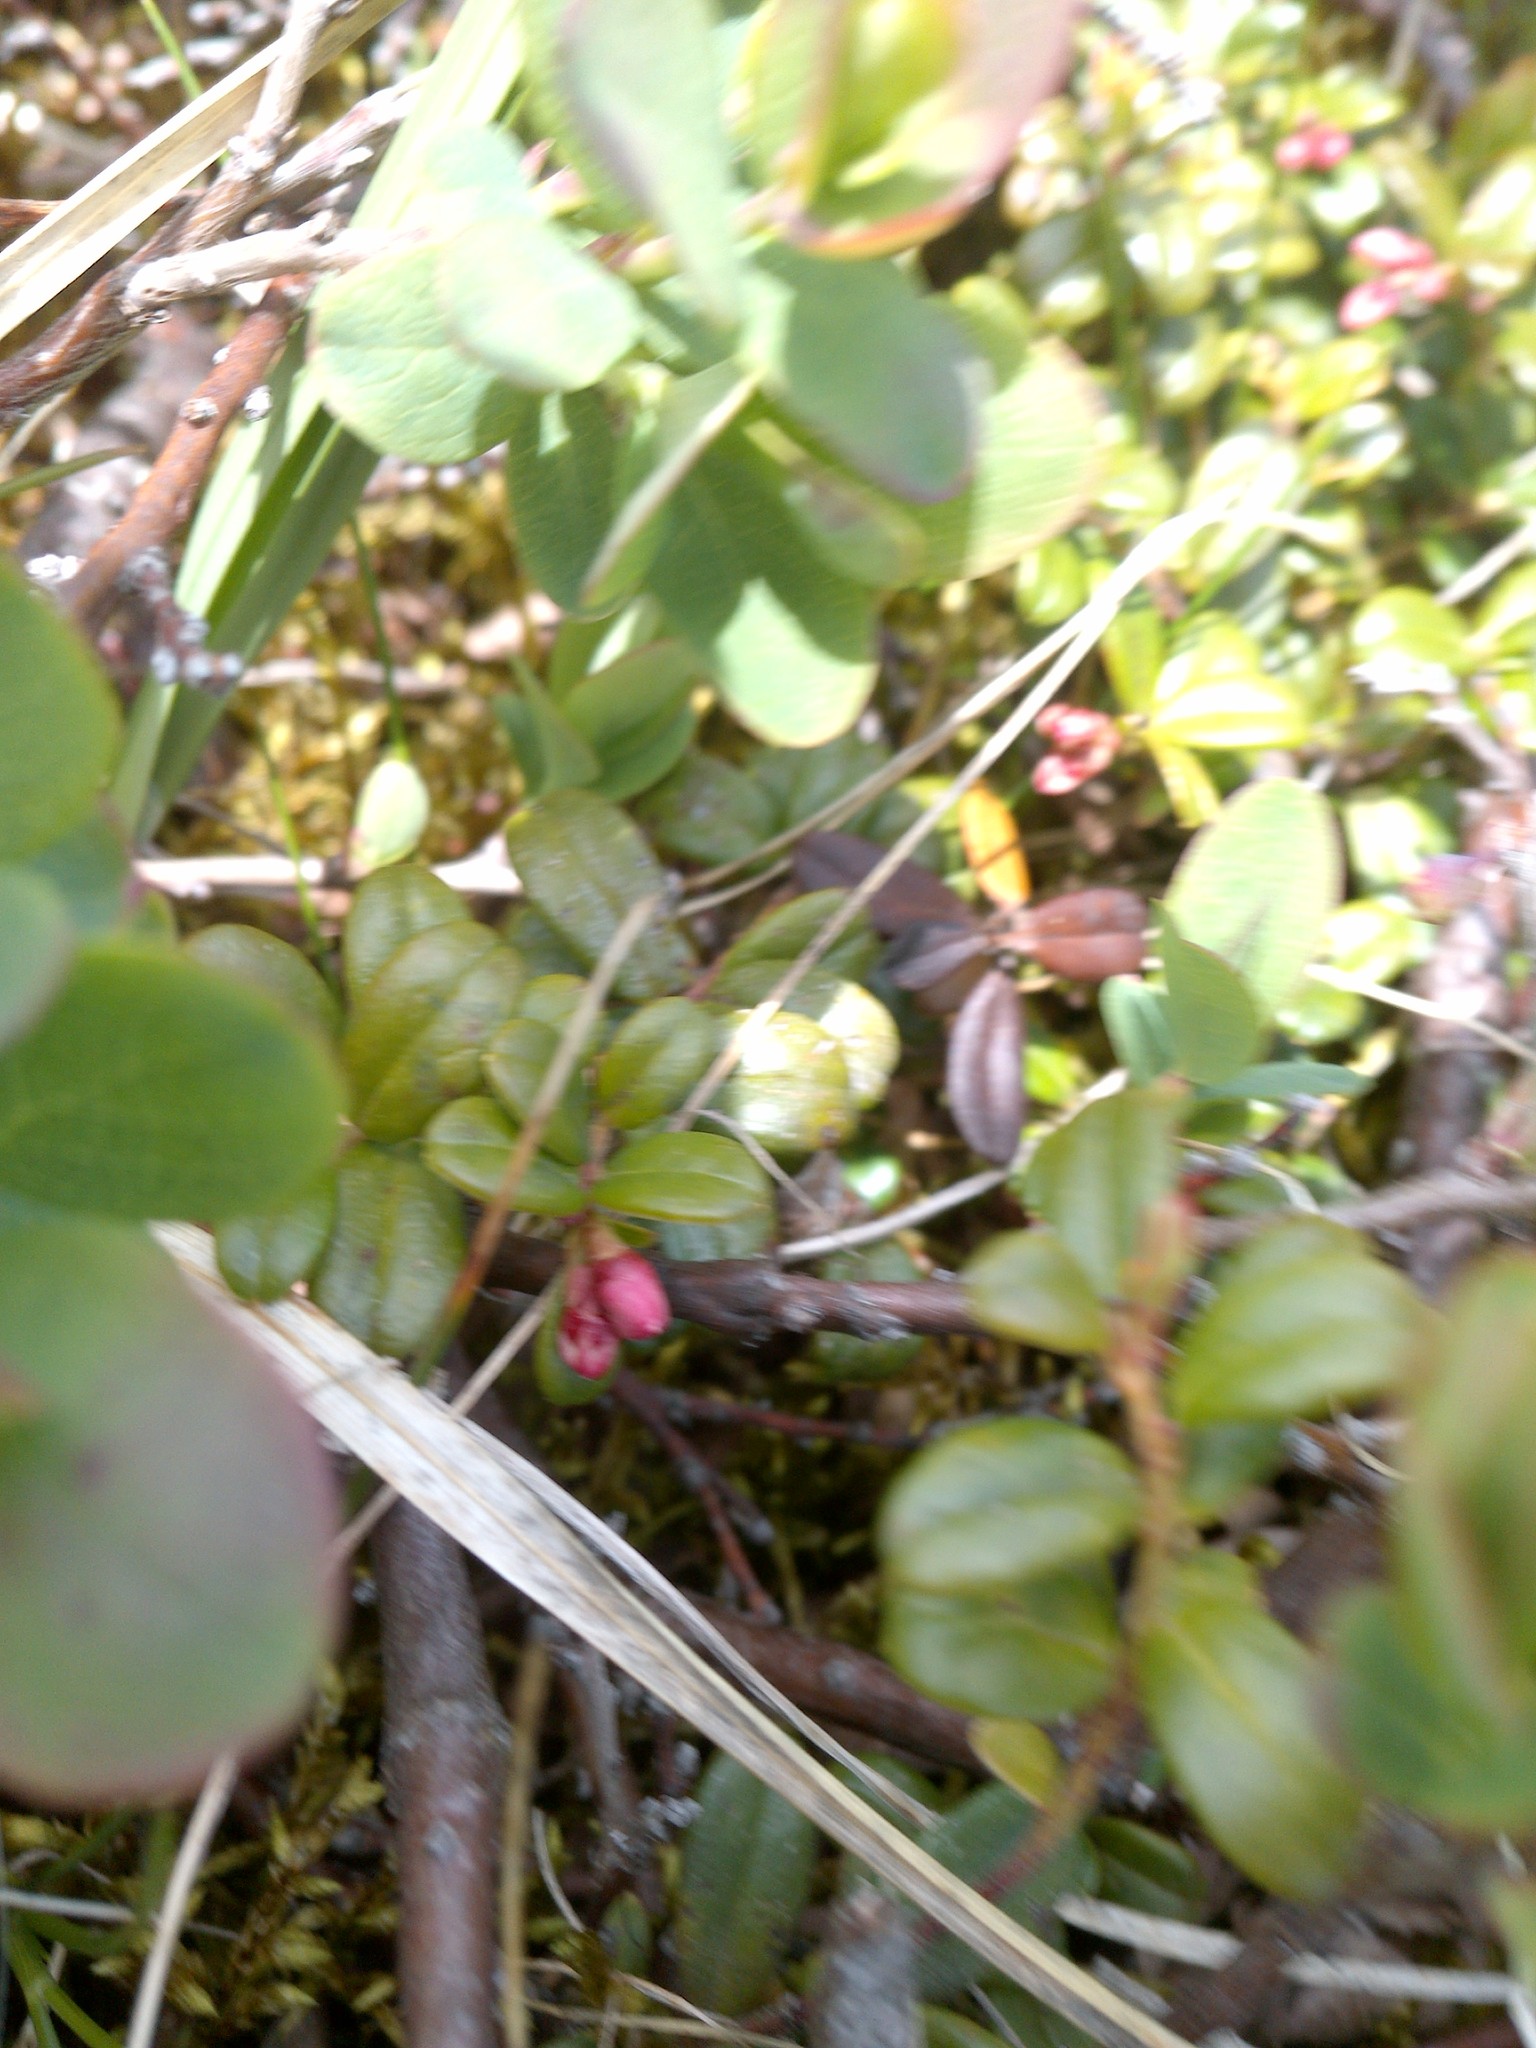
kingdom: Plantae
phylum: Tracheophyta
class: Magnoliopsida
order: Ericales
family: Ericaceae
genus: Vaccinium
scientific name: Vaccinium vitis-idaea
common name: Cowberry
